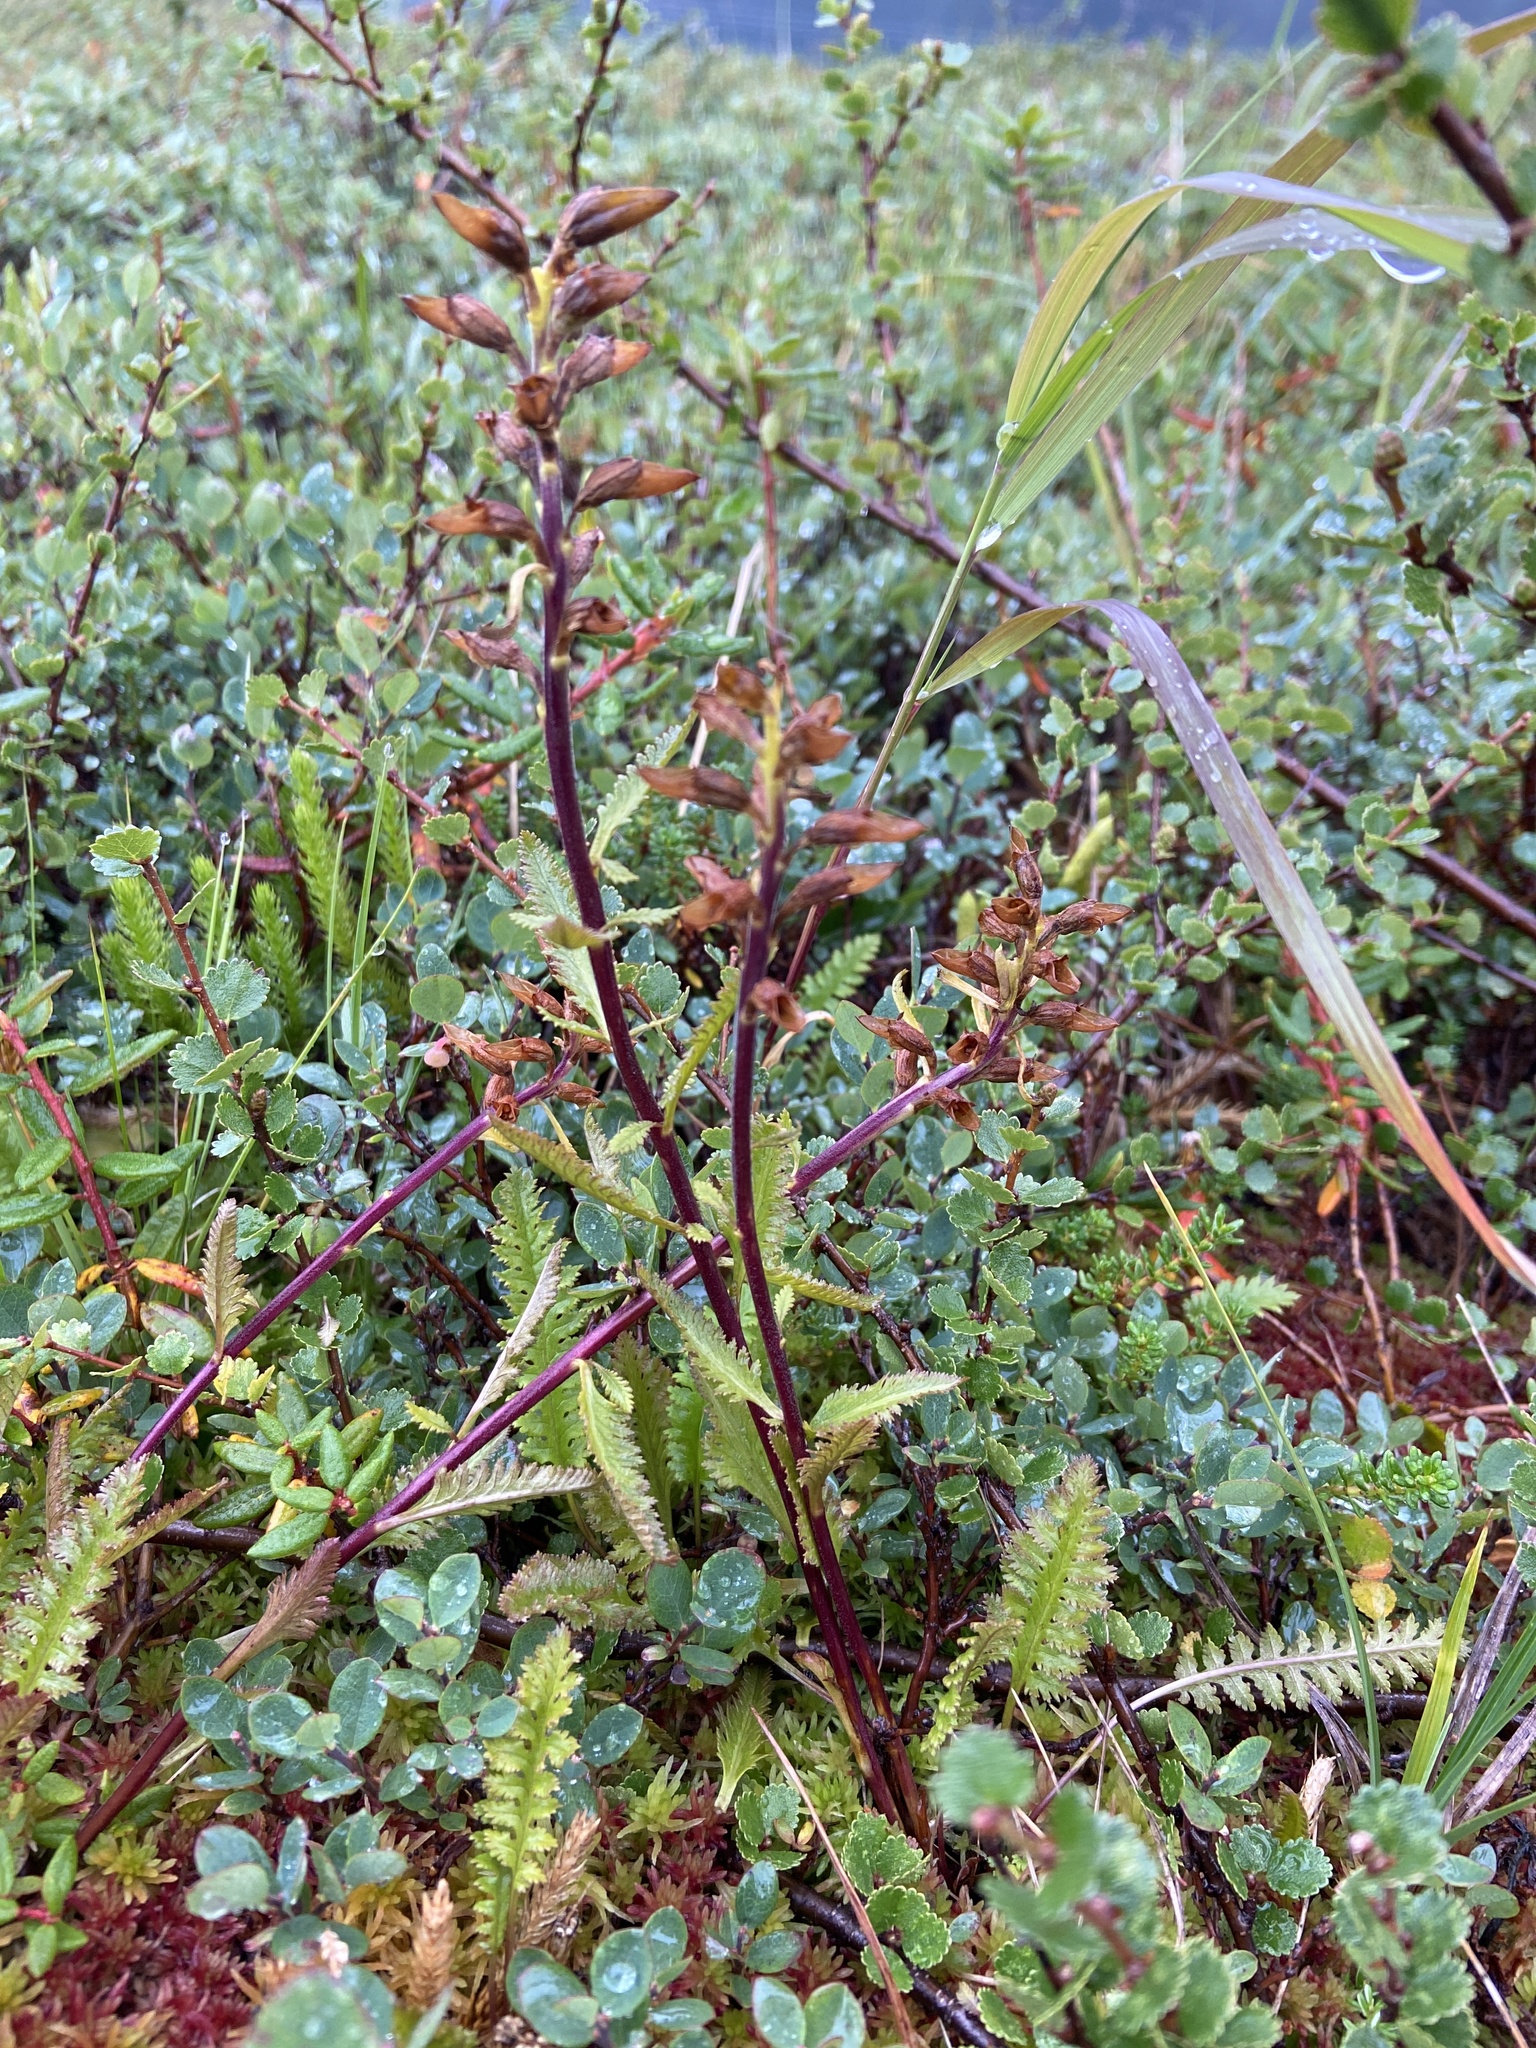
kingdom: Plantae
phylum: Tracheophyta
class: Magnoliopsida
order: Lamiales
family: Orobanchaceae
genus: Pedicularis
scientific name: Pedicularis lapponica
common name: Lapland lousewort
